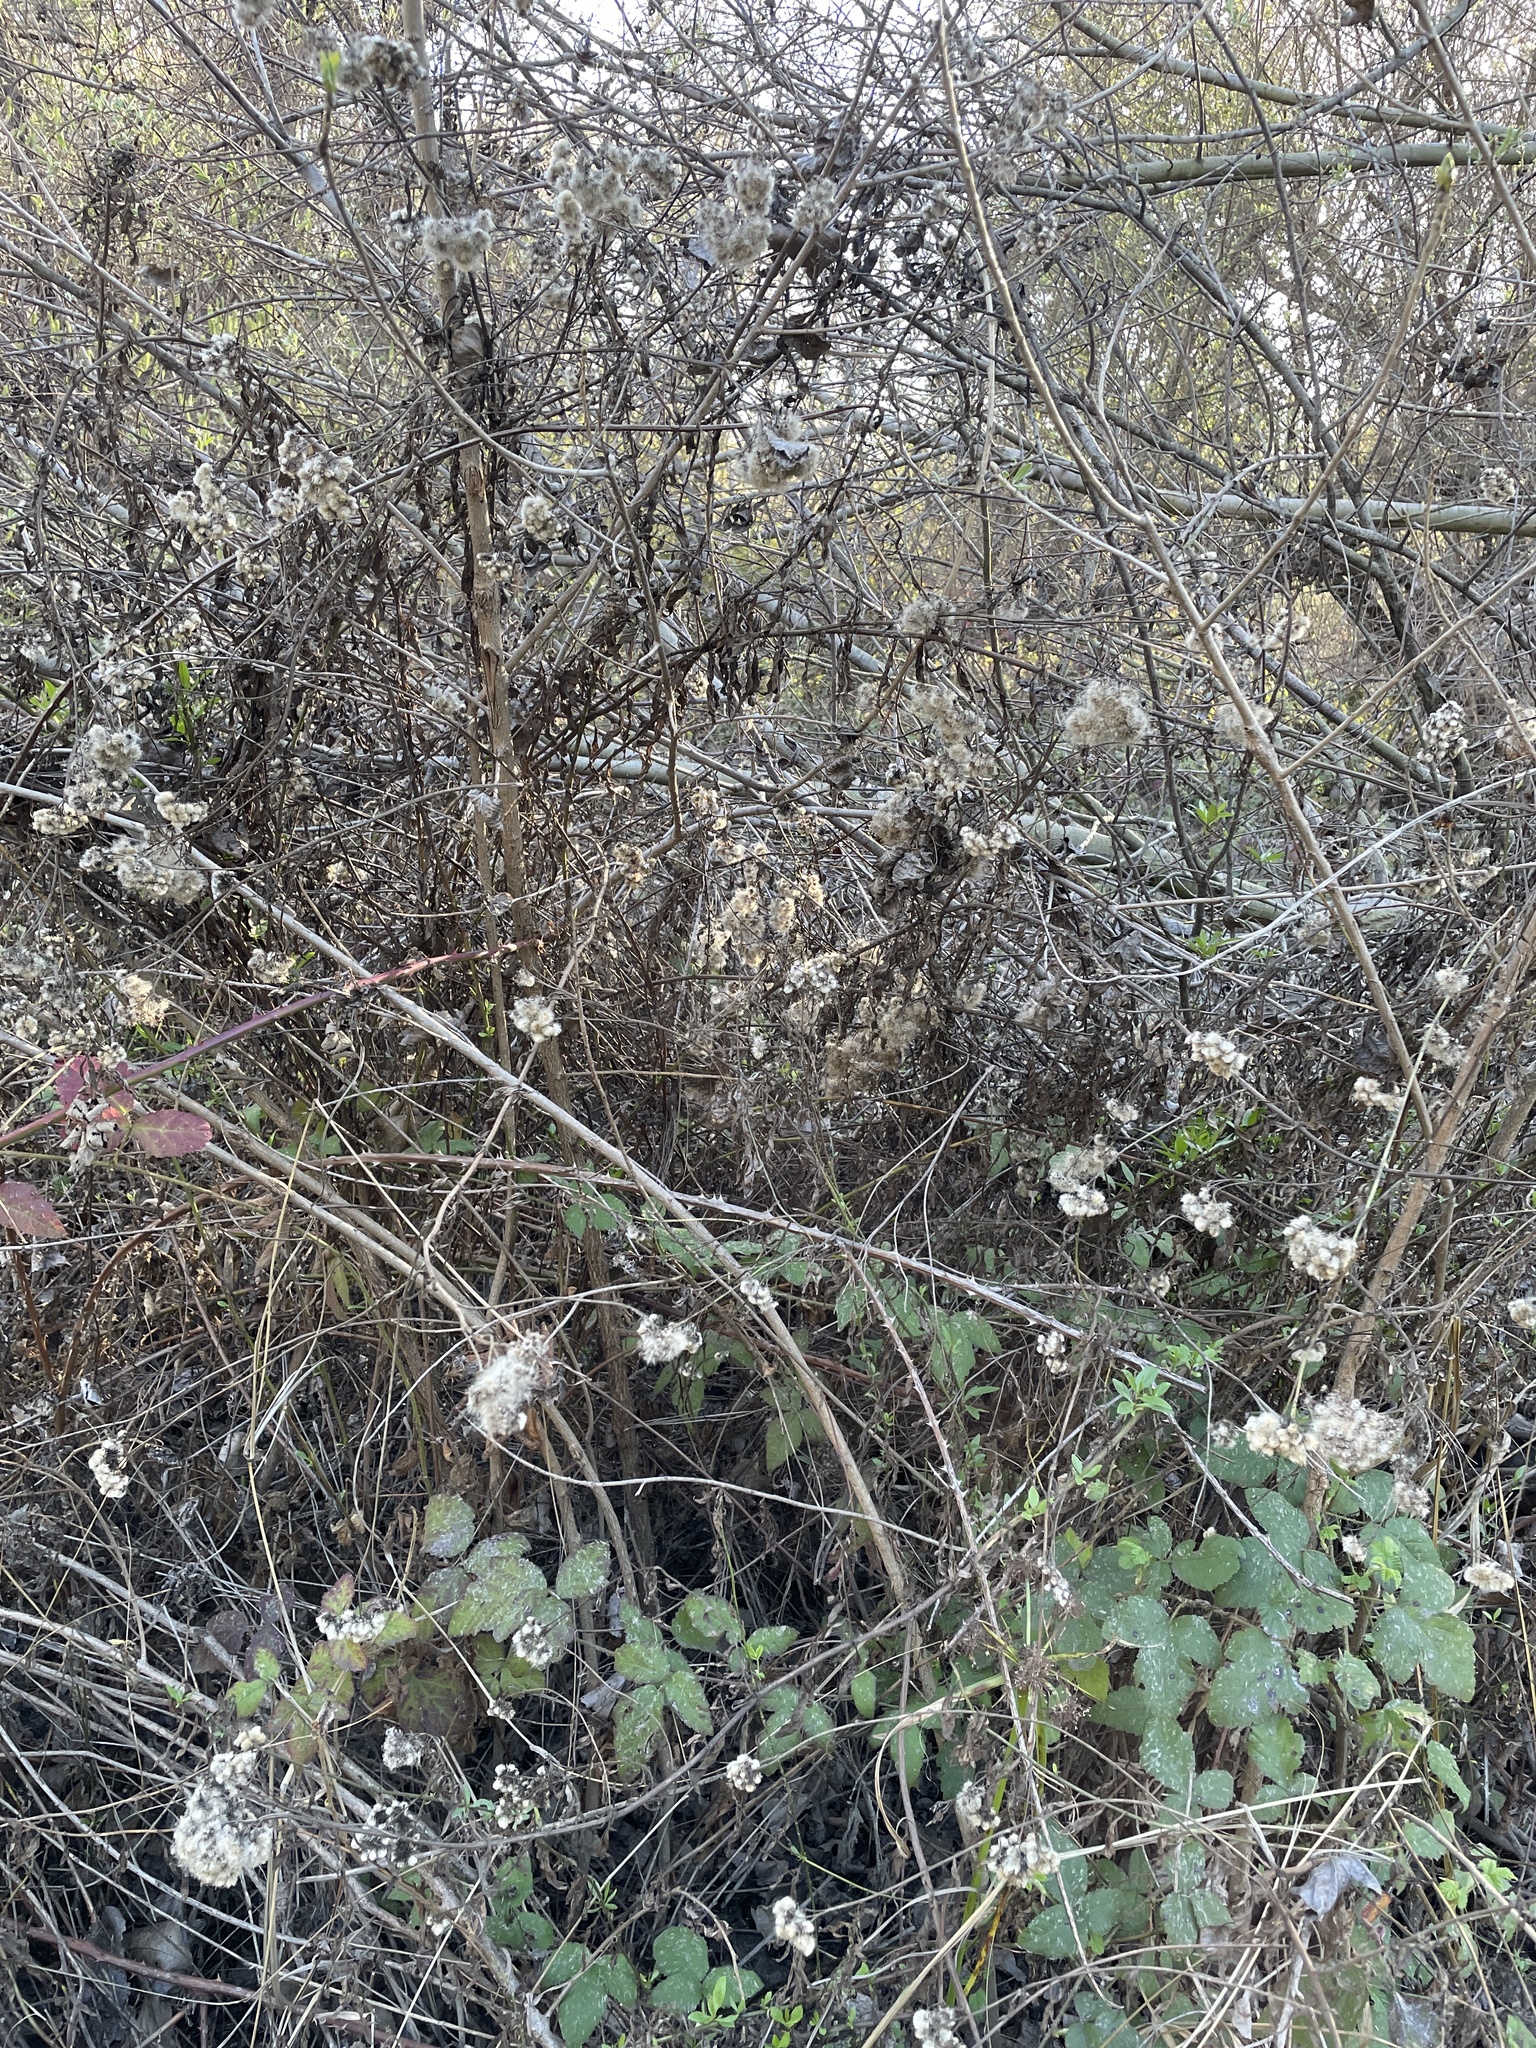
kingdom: Plantae
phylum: Tracheophyta
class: Magnoliopsida
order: Asterales
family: Asteraceae
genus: Baccharis
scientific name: Baccharis glutinosa
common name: Saltmarsh baccharis
